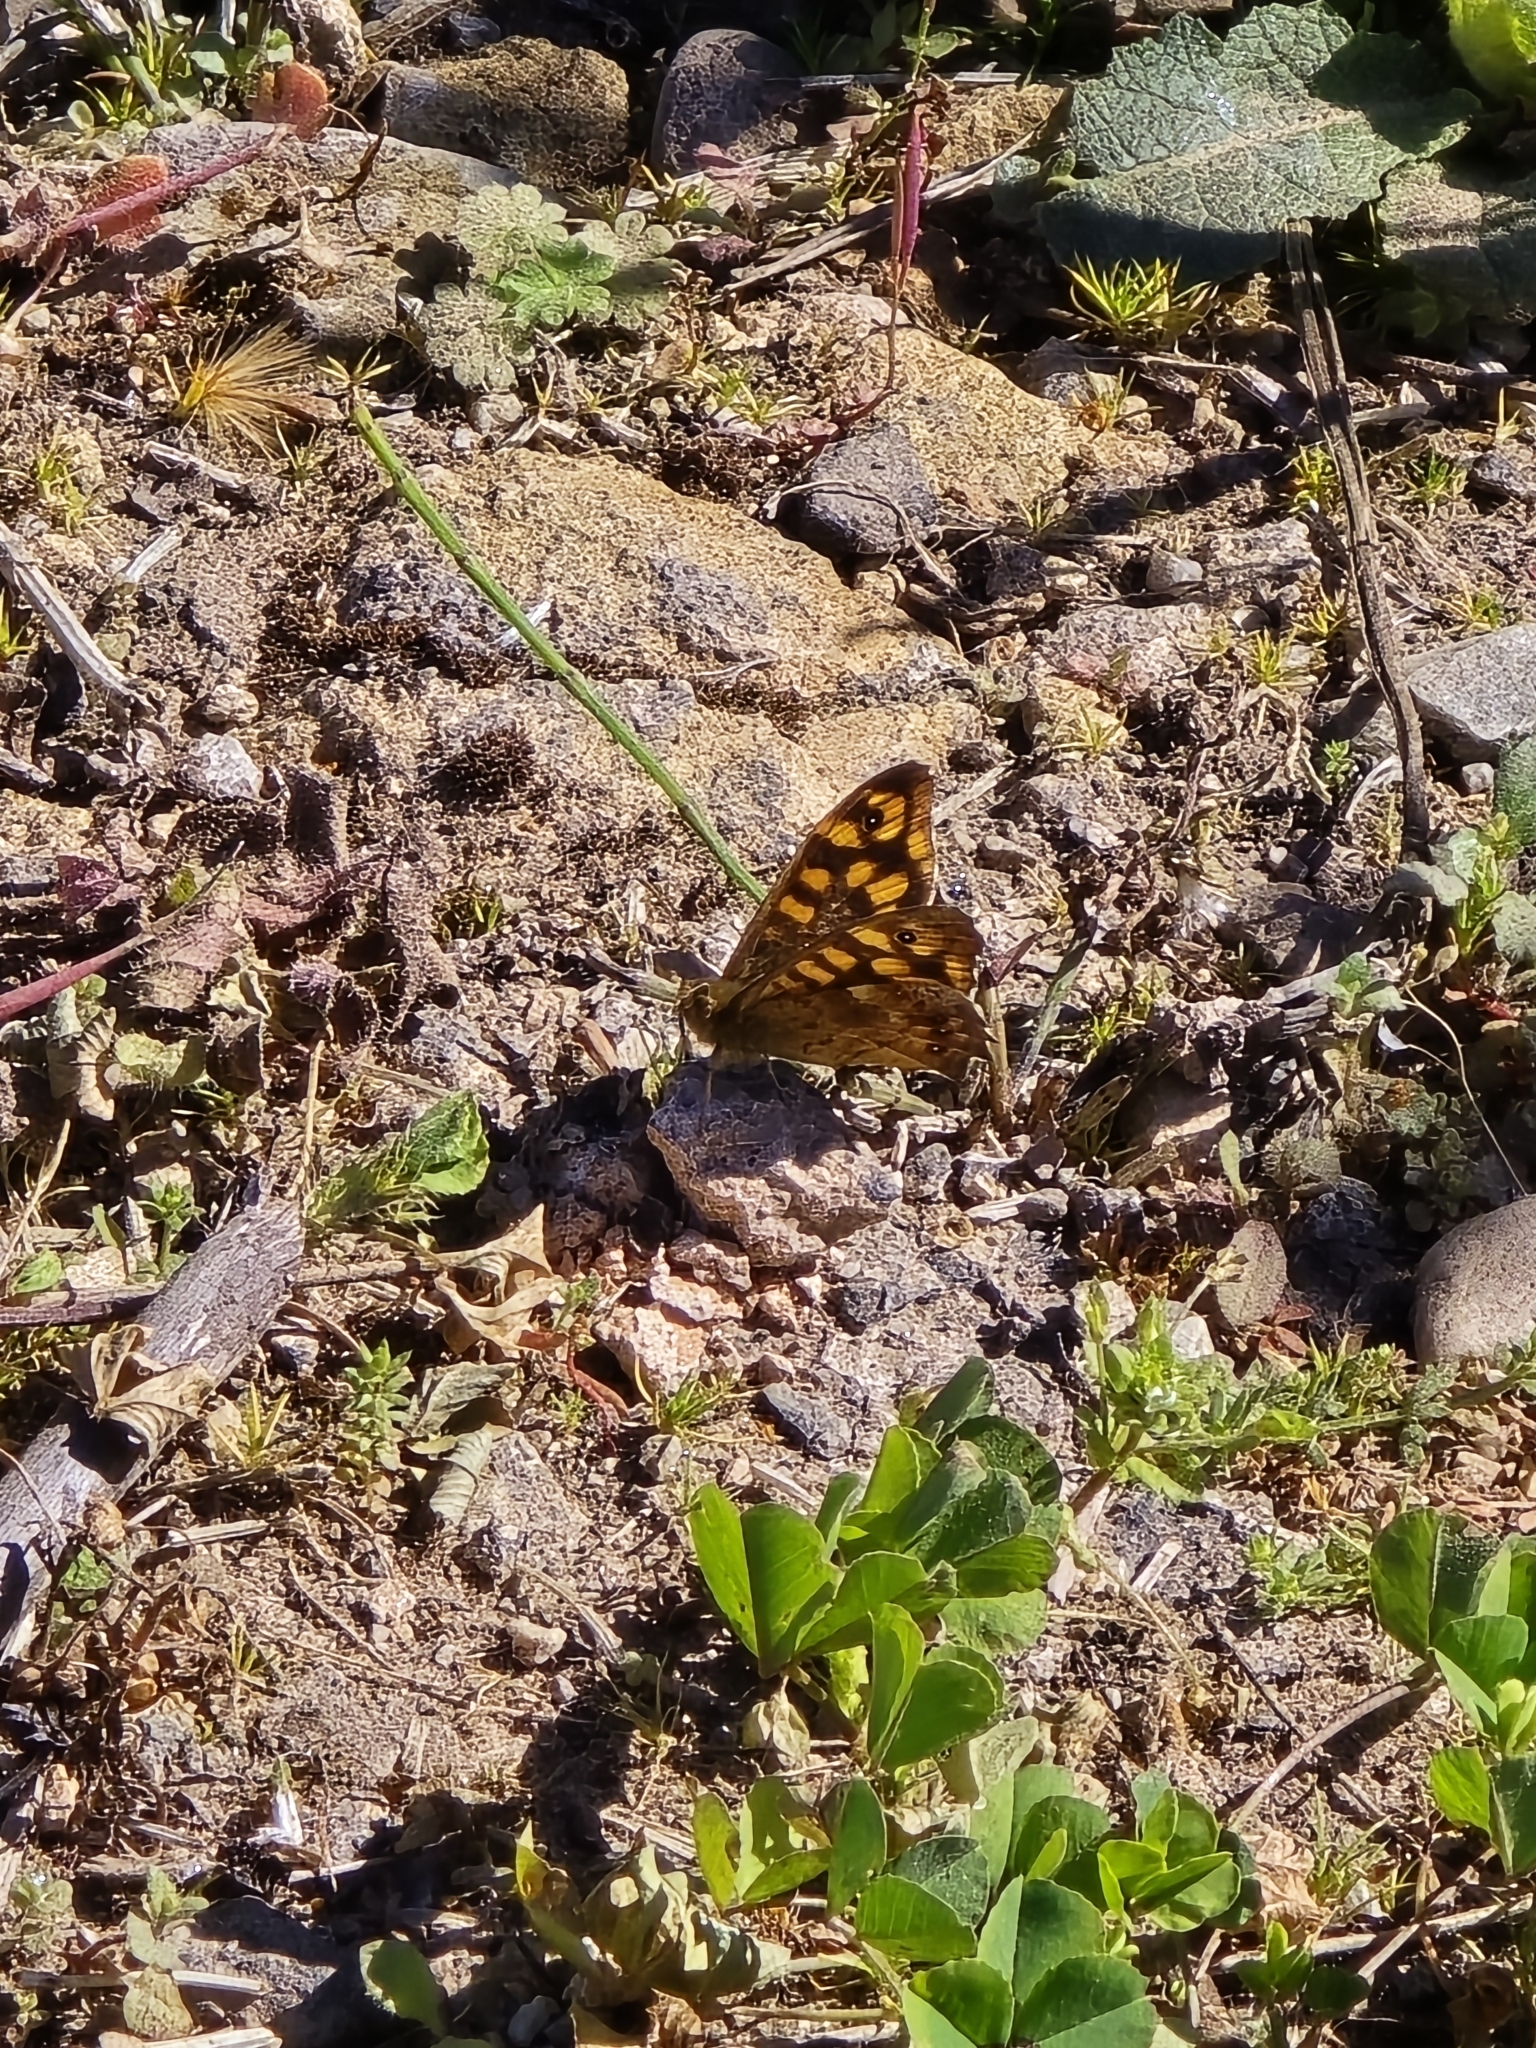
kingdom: Animalia
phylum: Arthropoda
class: Insecta
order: Lepidoptera
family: Nymphalidae
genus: Pararge
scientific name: Pararge aegeria
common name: Speckled wood
